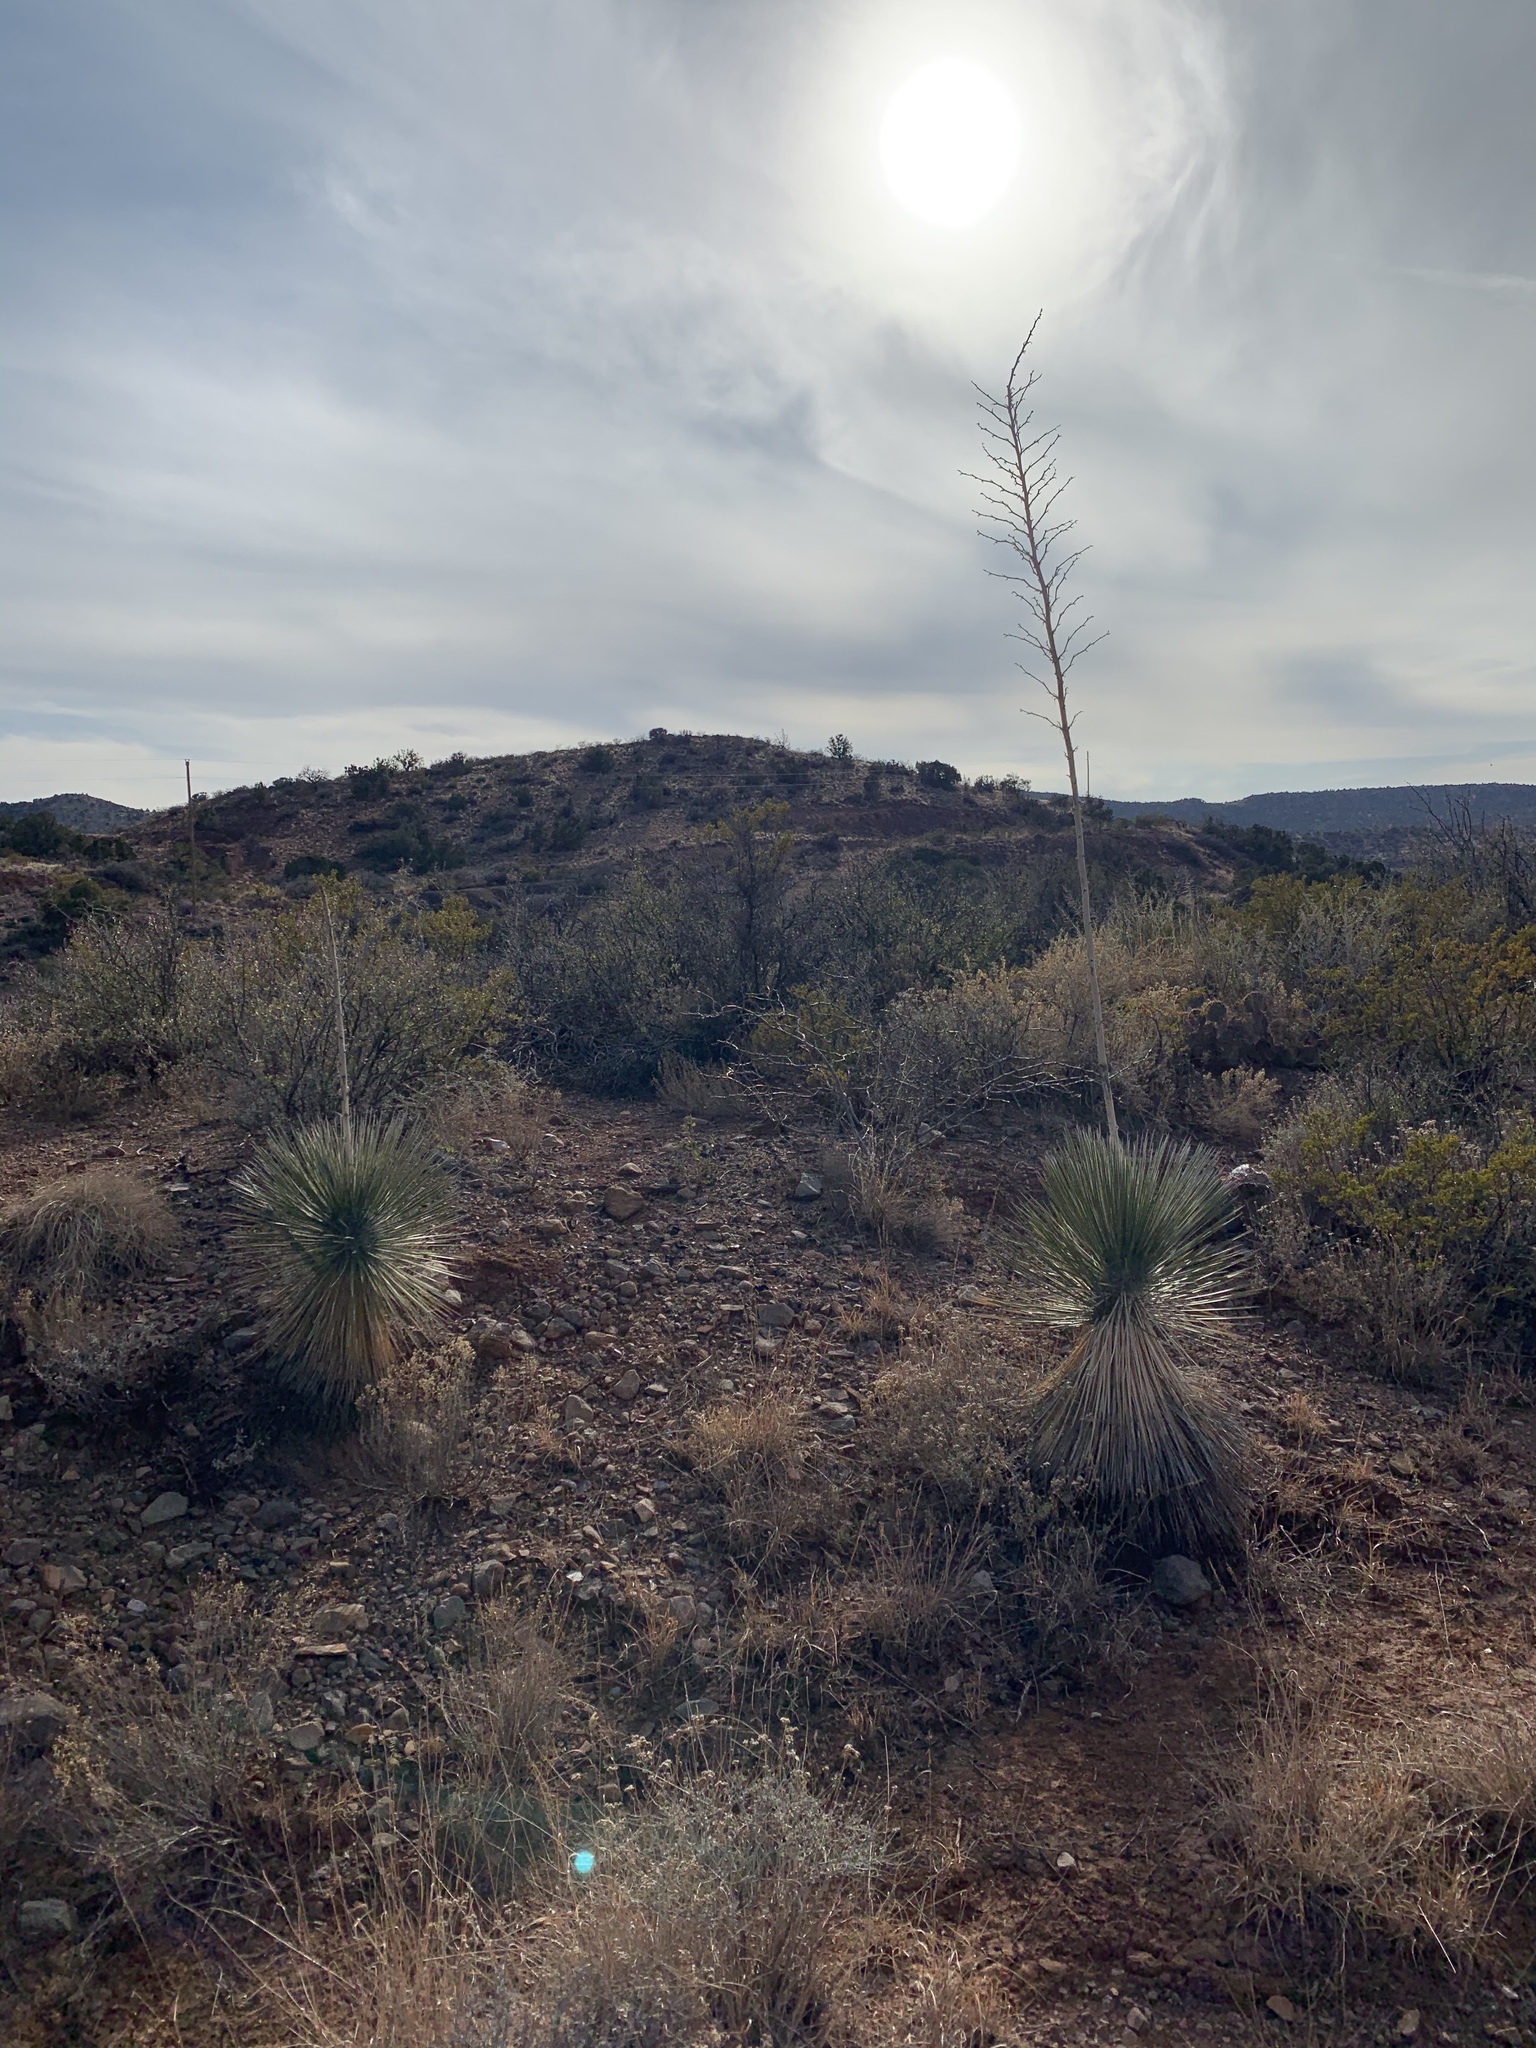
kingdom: Plantae
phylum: Tracheophyta
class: Liliopsida
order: Asparagales
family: Asparagaceae
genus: Yucca
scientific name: Yucca elata
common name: Palmella
